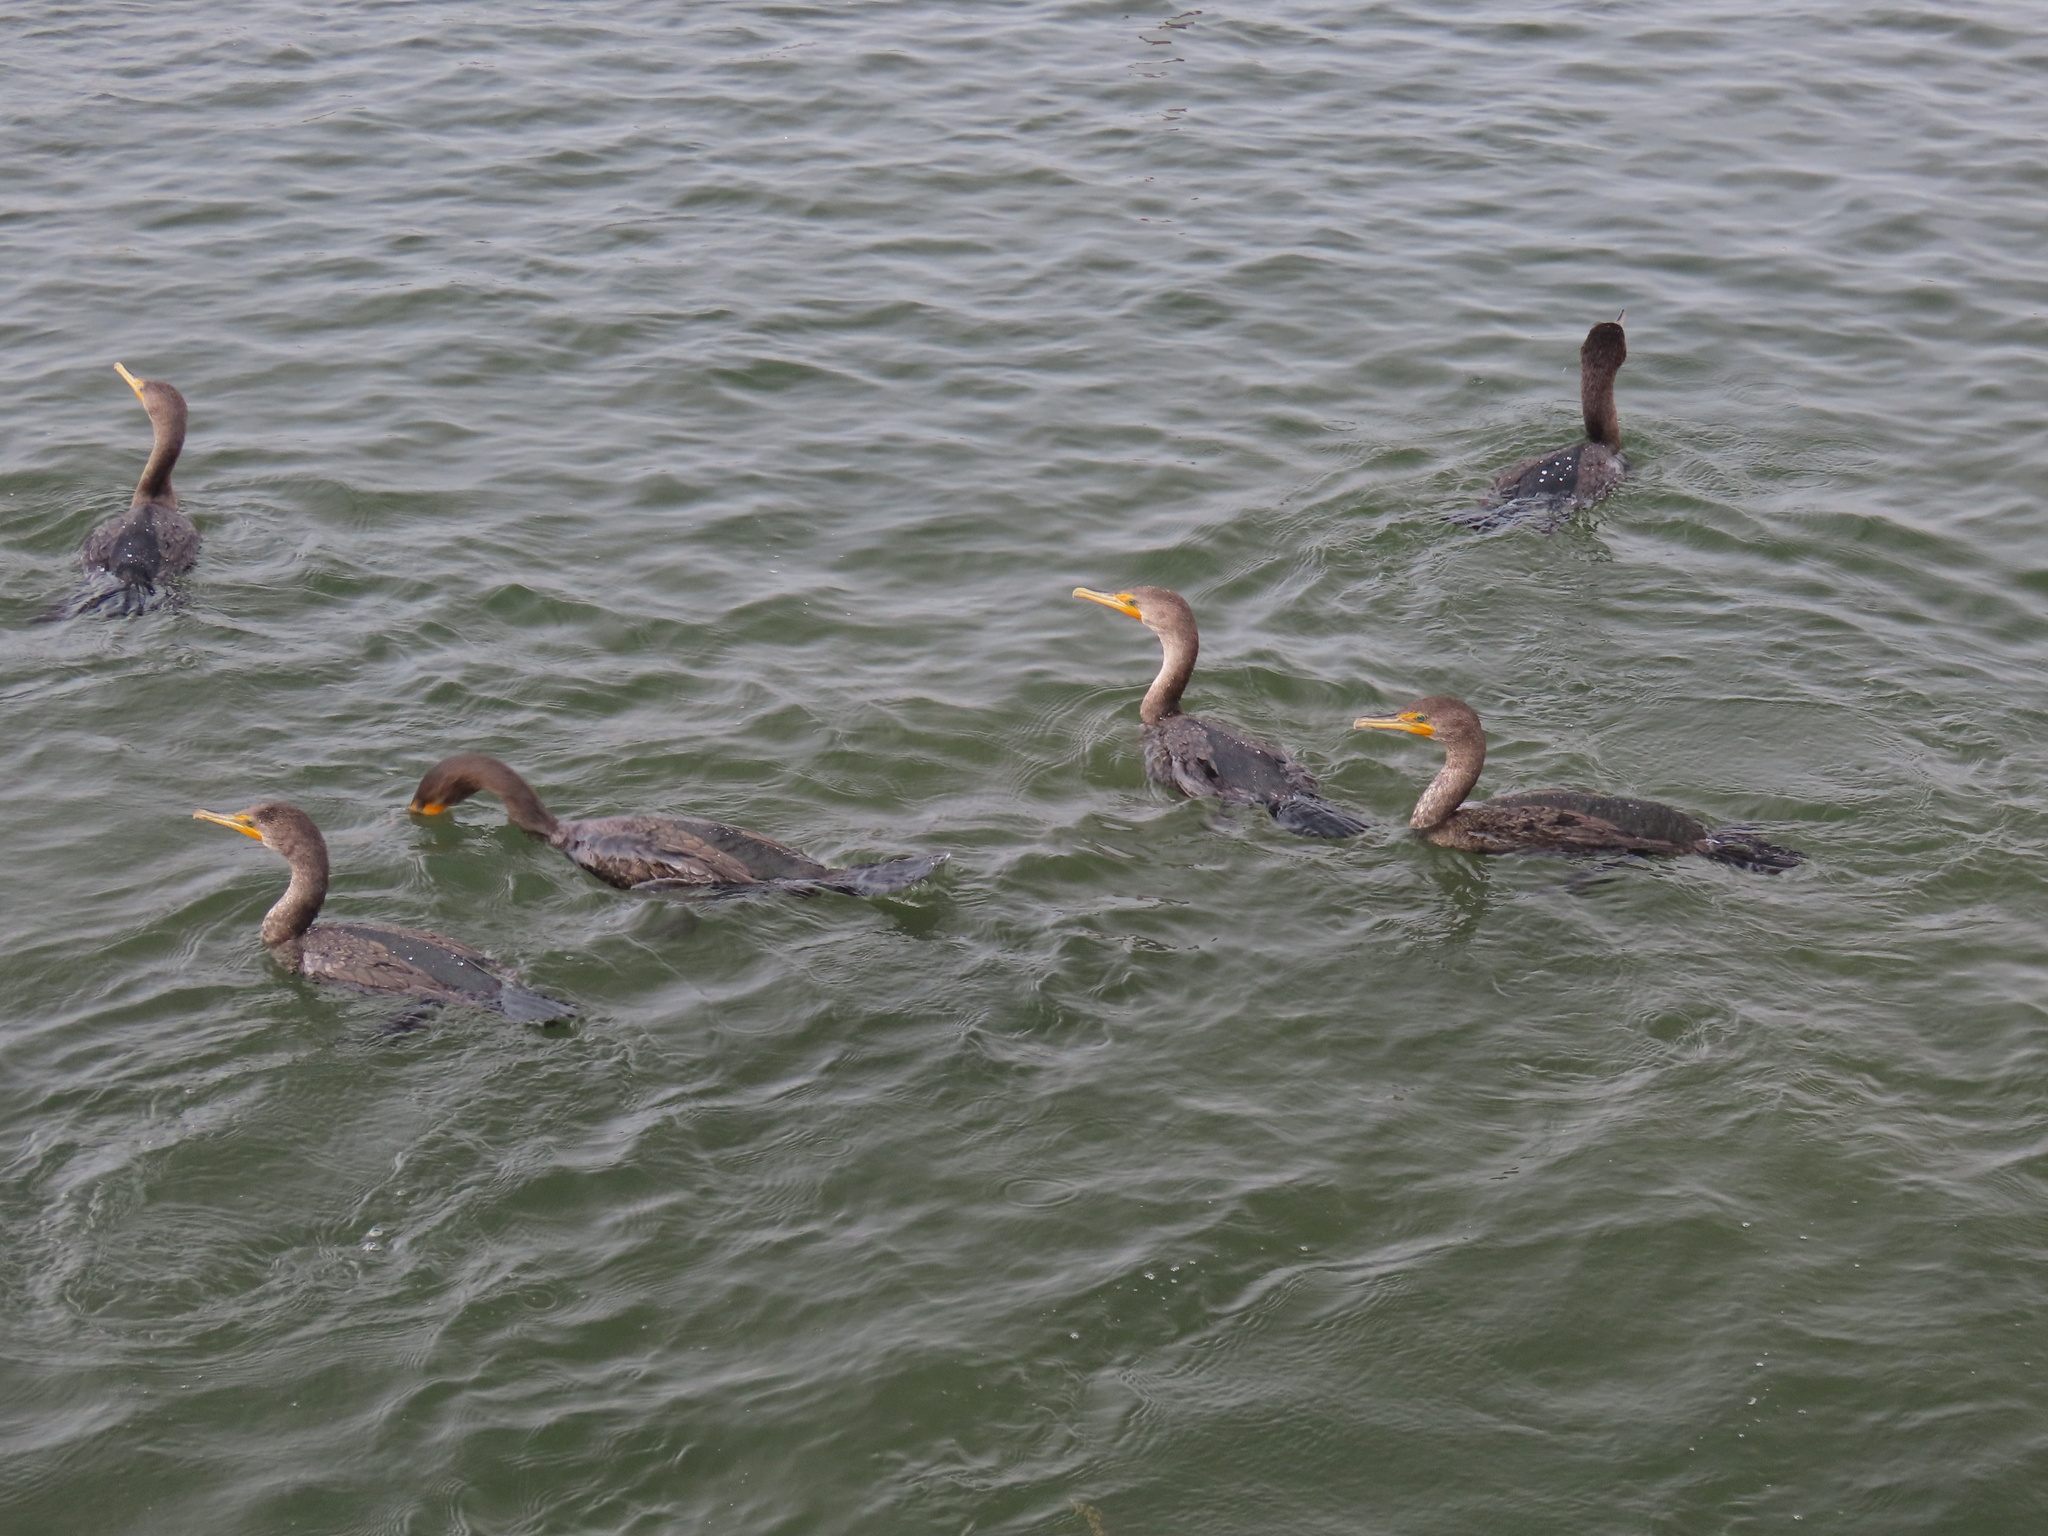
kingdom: Animalia
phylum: Chordata
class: Aves
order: Suliformes
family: Phalacrocoracidae
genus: Phalacrocorax
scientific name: Phalacrocorax auritus
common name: Double-crested cormorant
